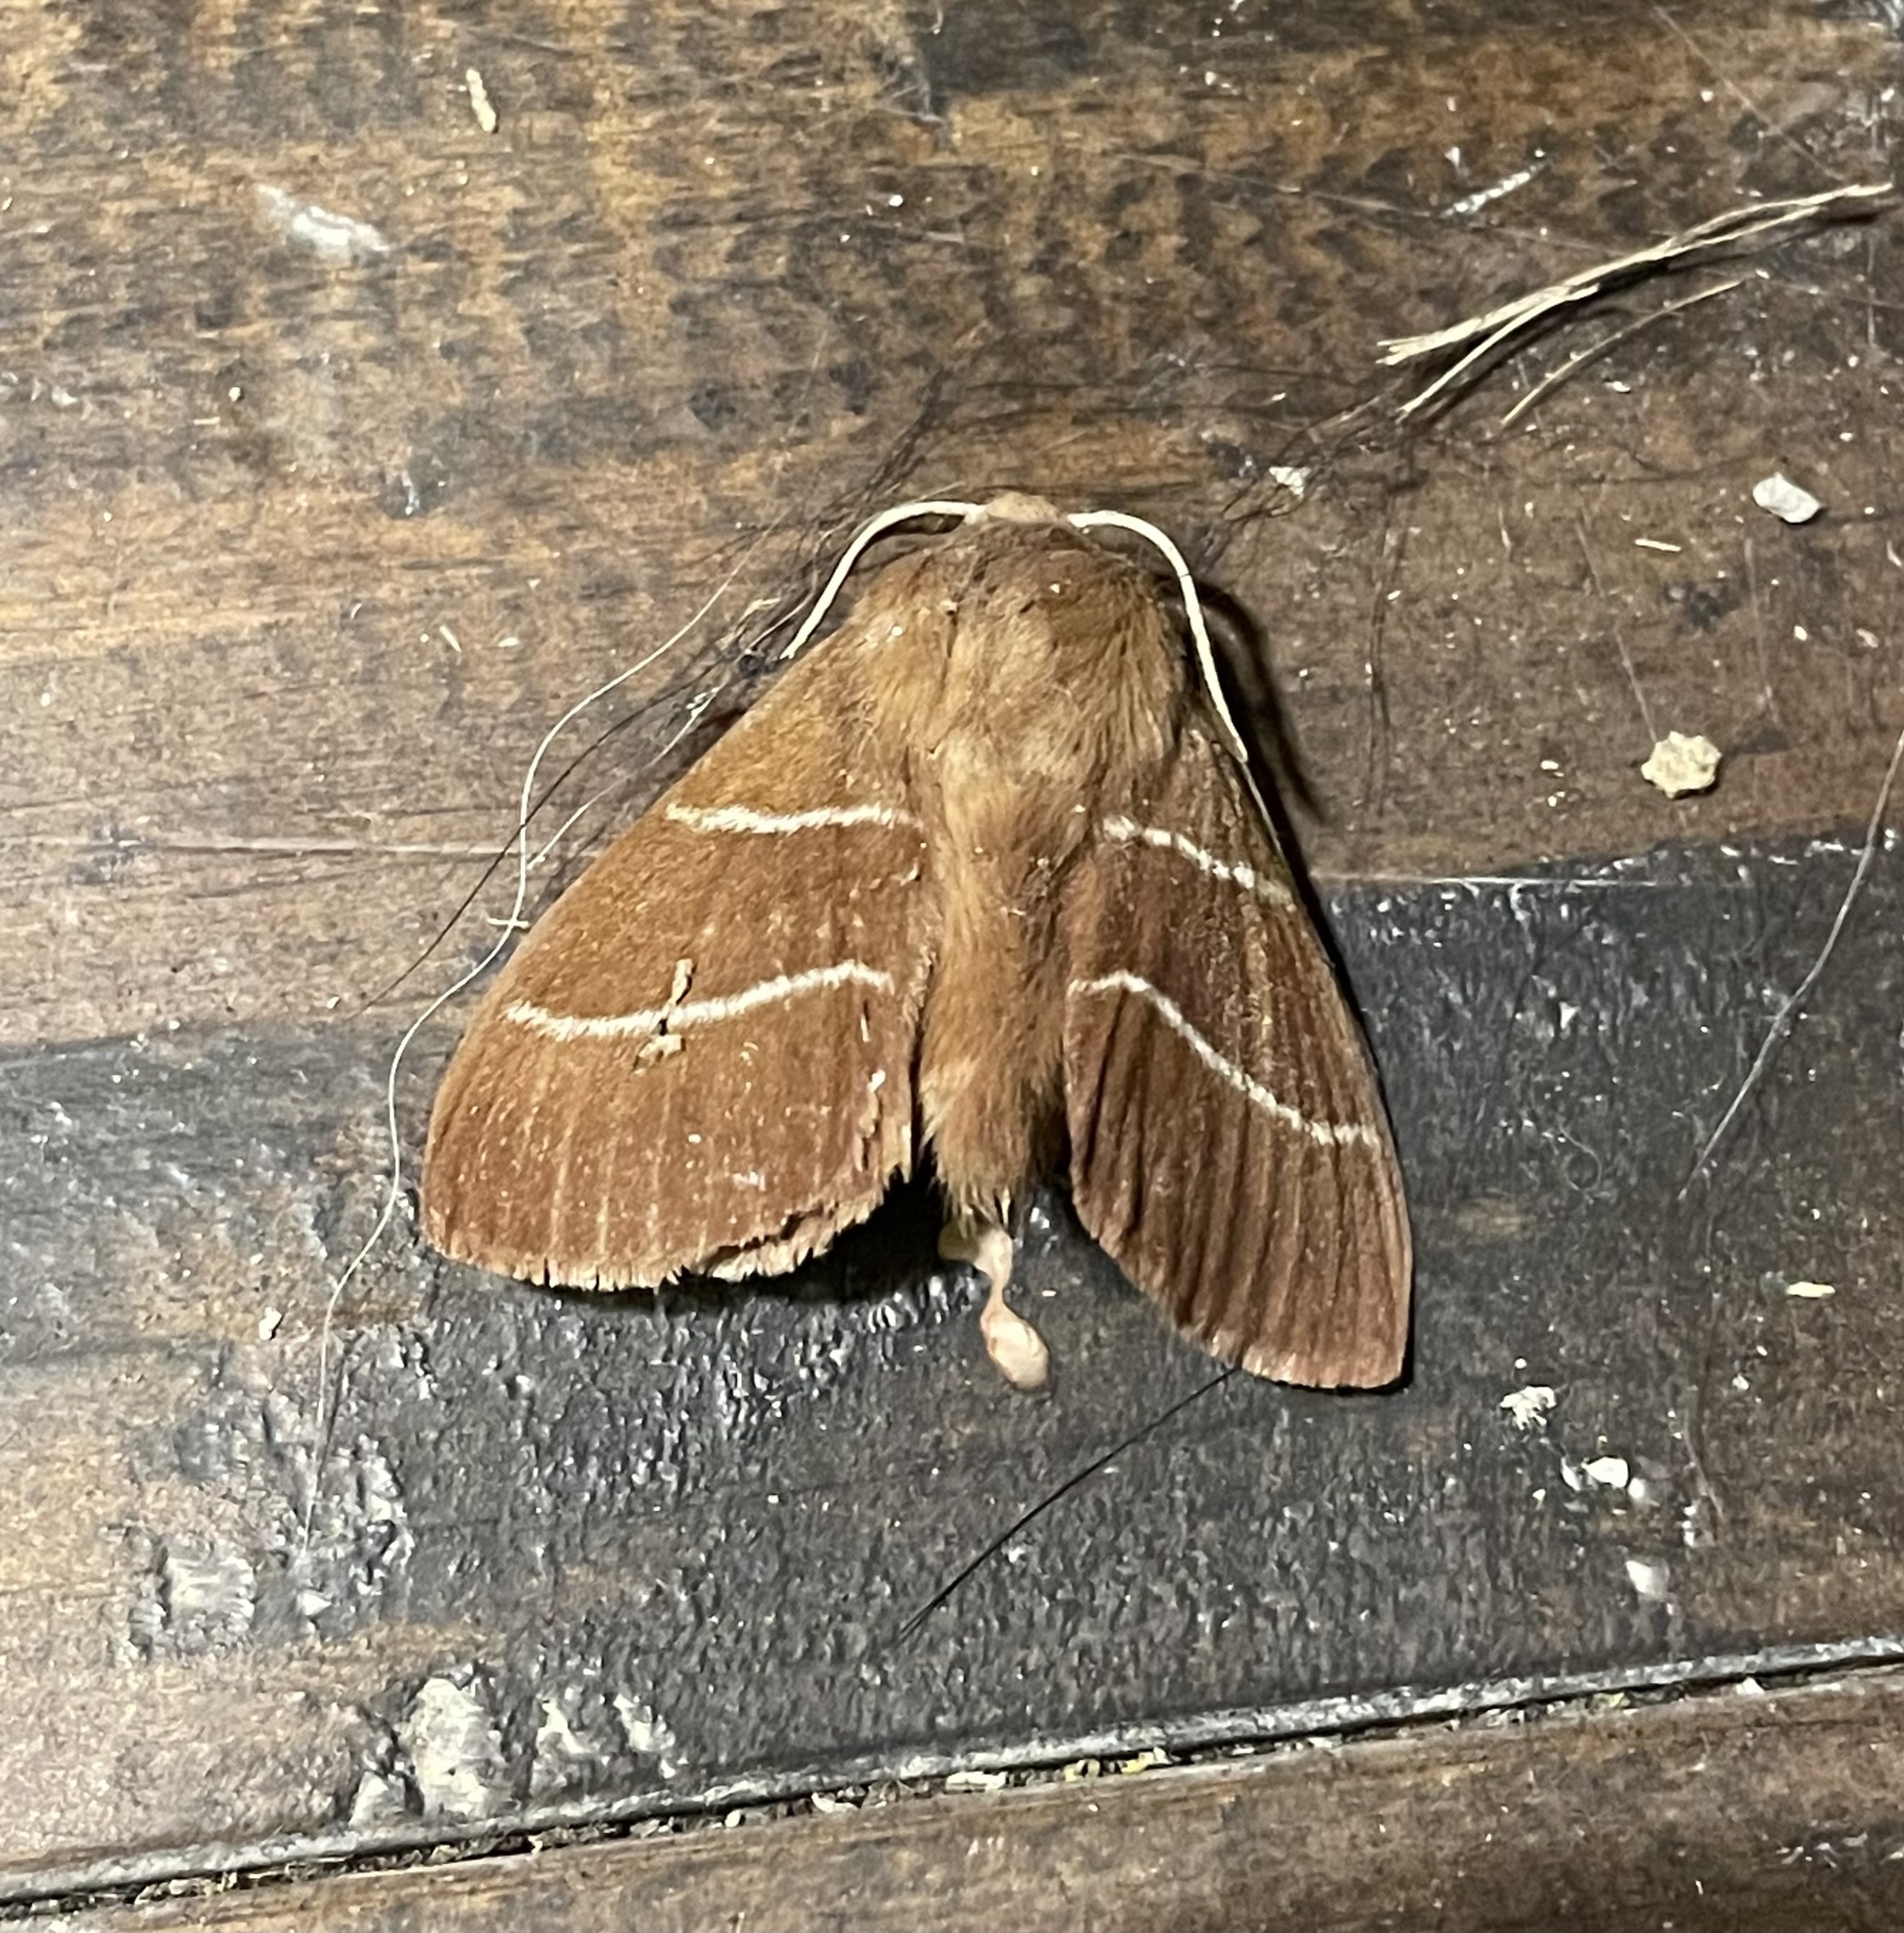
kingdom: Animalia
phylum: Arthropoda
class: Insecta
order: Lepidoptera
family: Lasiocampidae
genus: Macrothylacia
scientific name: Macrothylacia digramma
